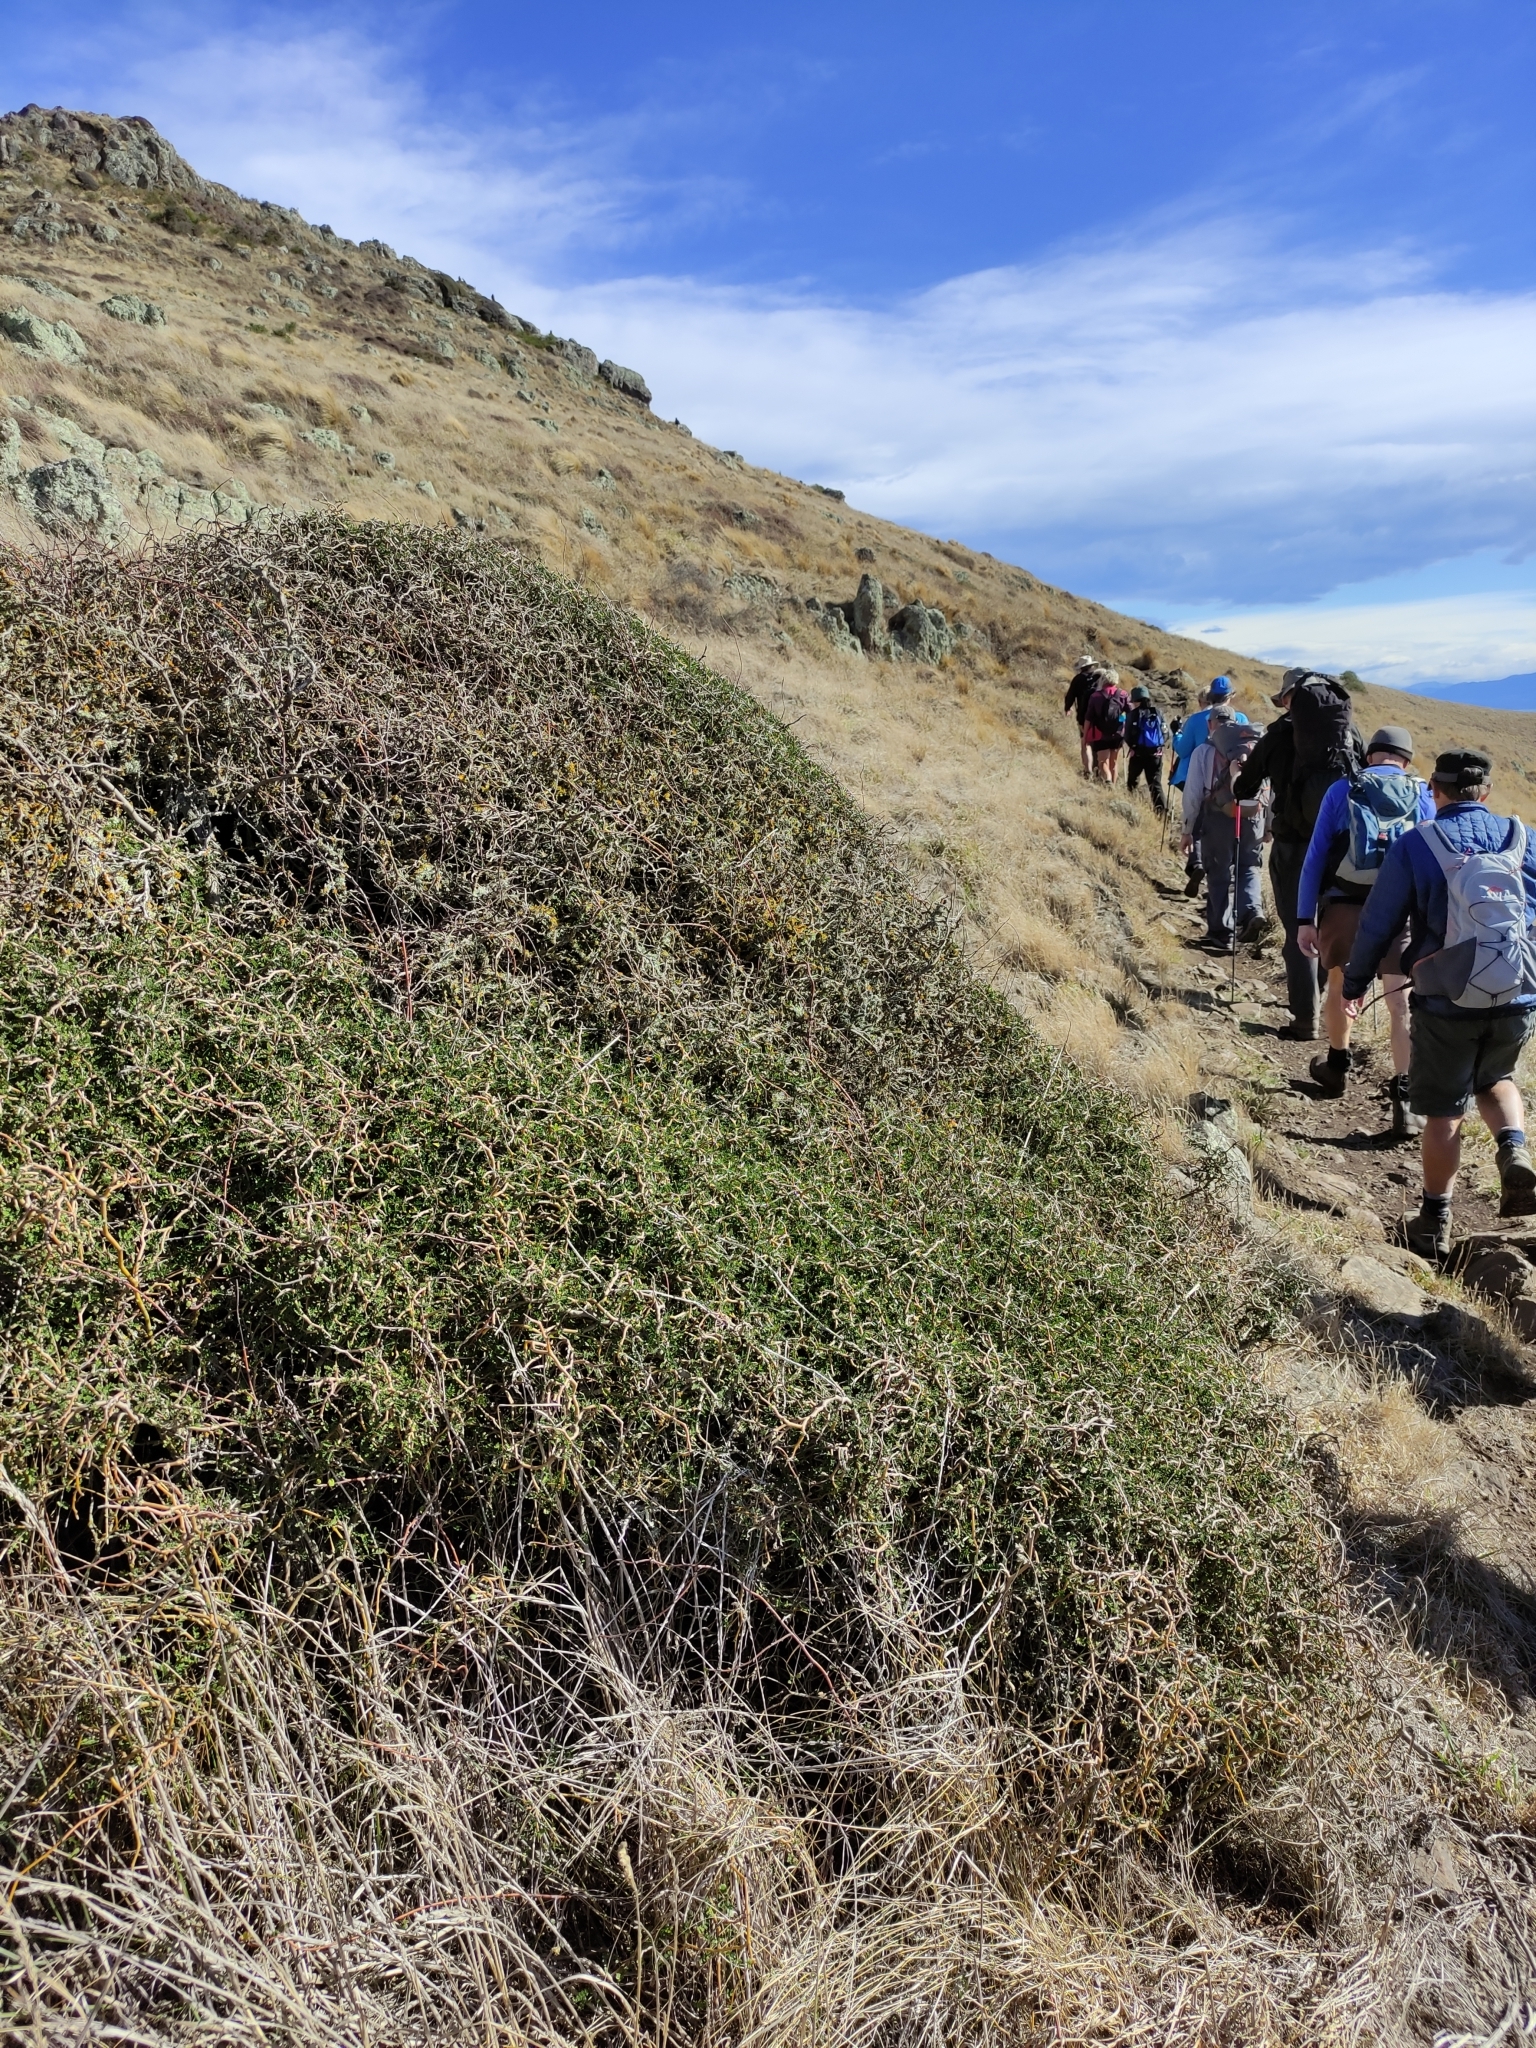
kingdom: Plantae
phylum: Tracheophyta
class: Magnoliopsida
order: Fabales
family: Fabaceae
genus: Sophora
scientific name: Sophora prostrata
